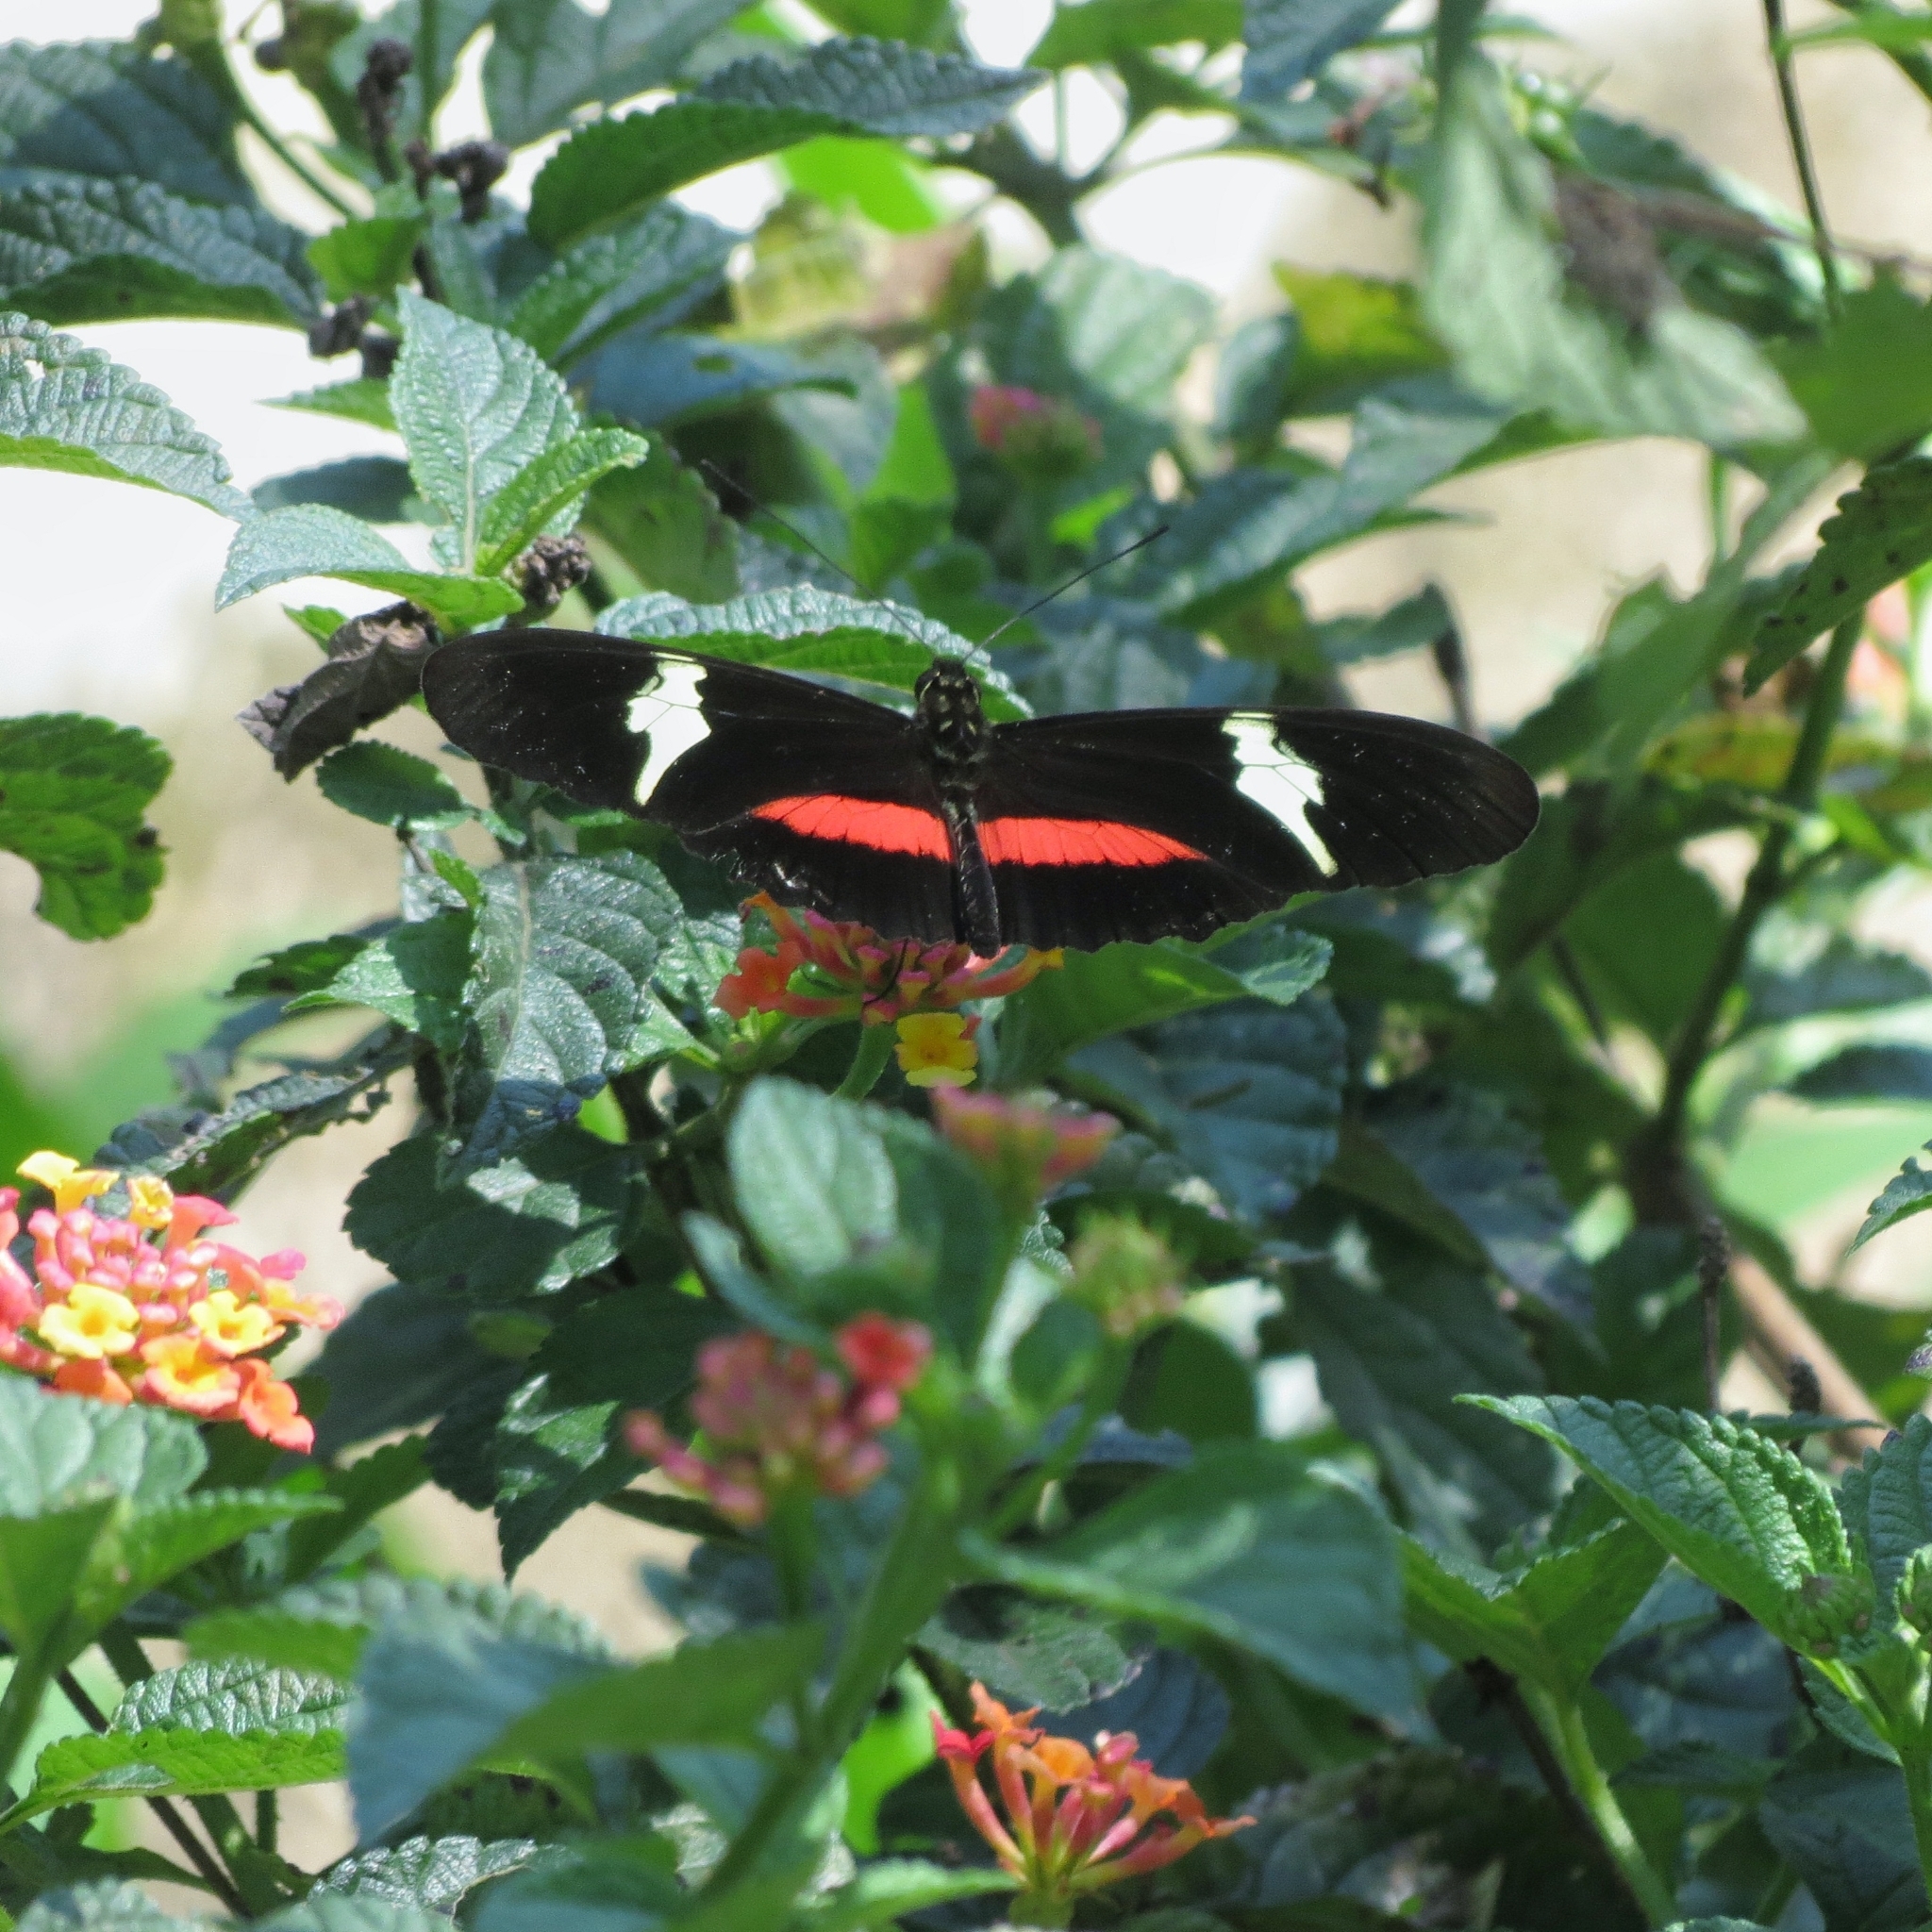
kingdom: Animalia
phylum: Arthropoda
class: Insecta
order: Lepidoptera
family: Nymphalidae
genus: Heliconius
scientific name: Heliconius clysonymus
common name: Clysonymus longwing
